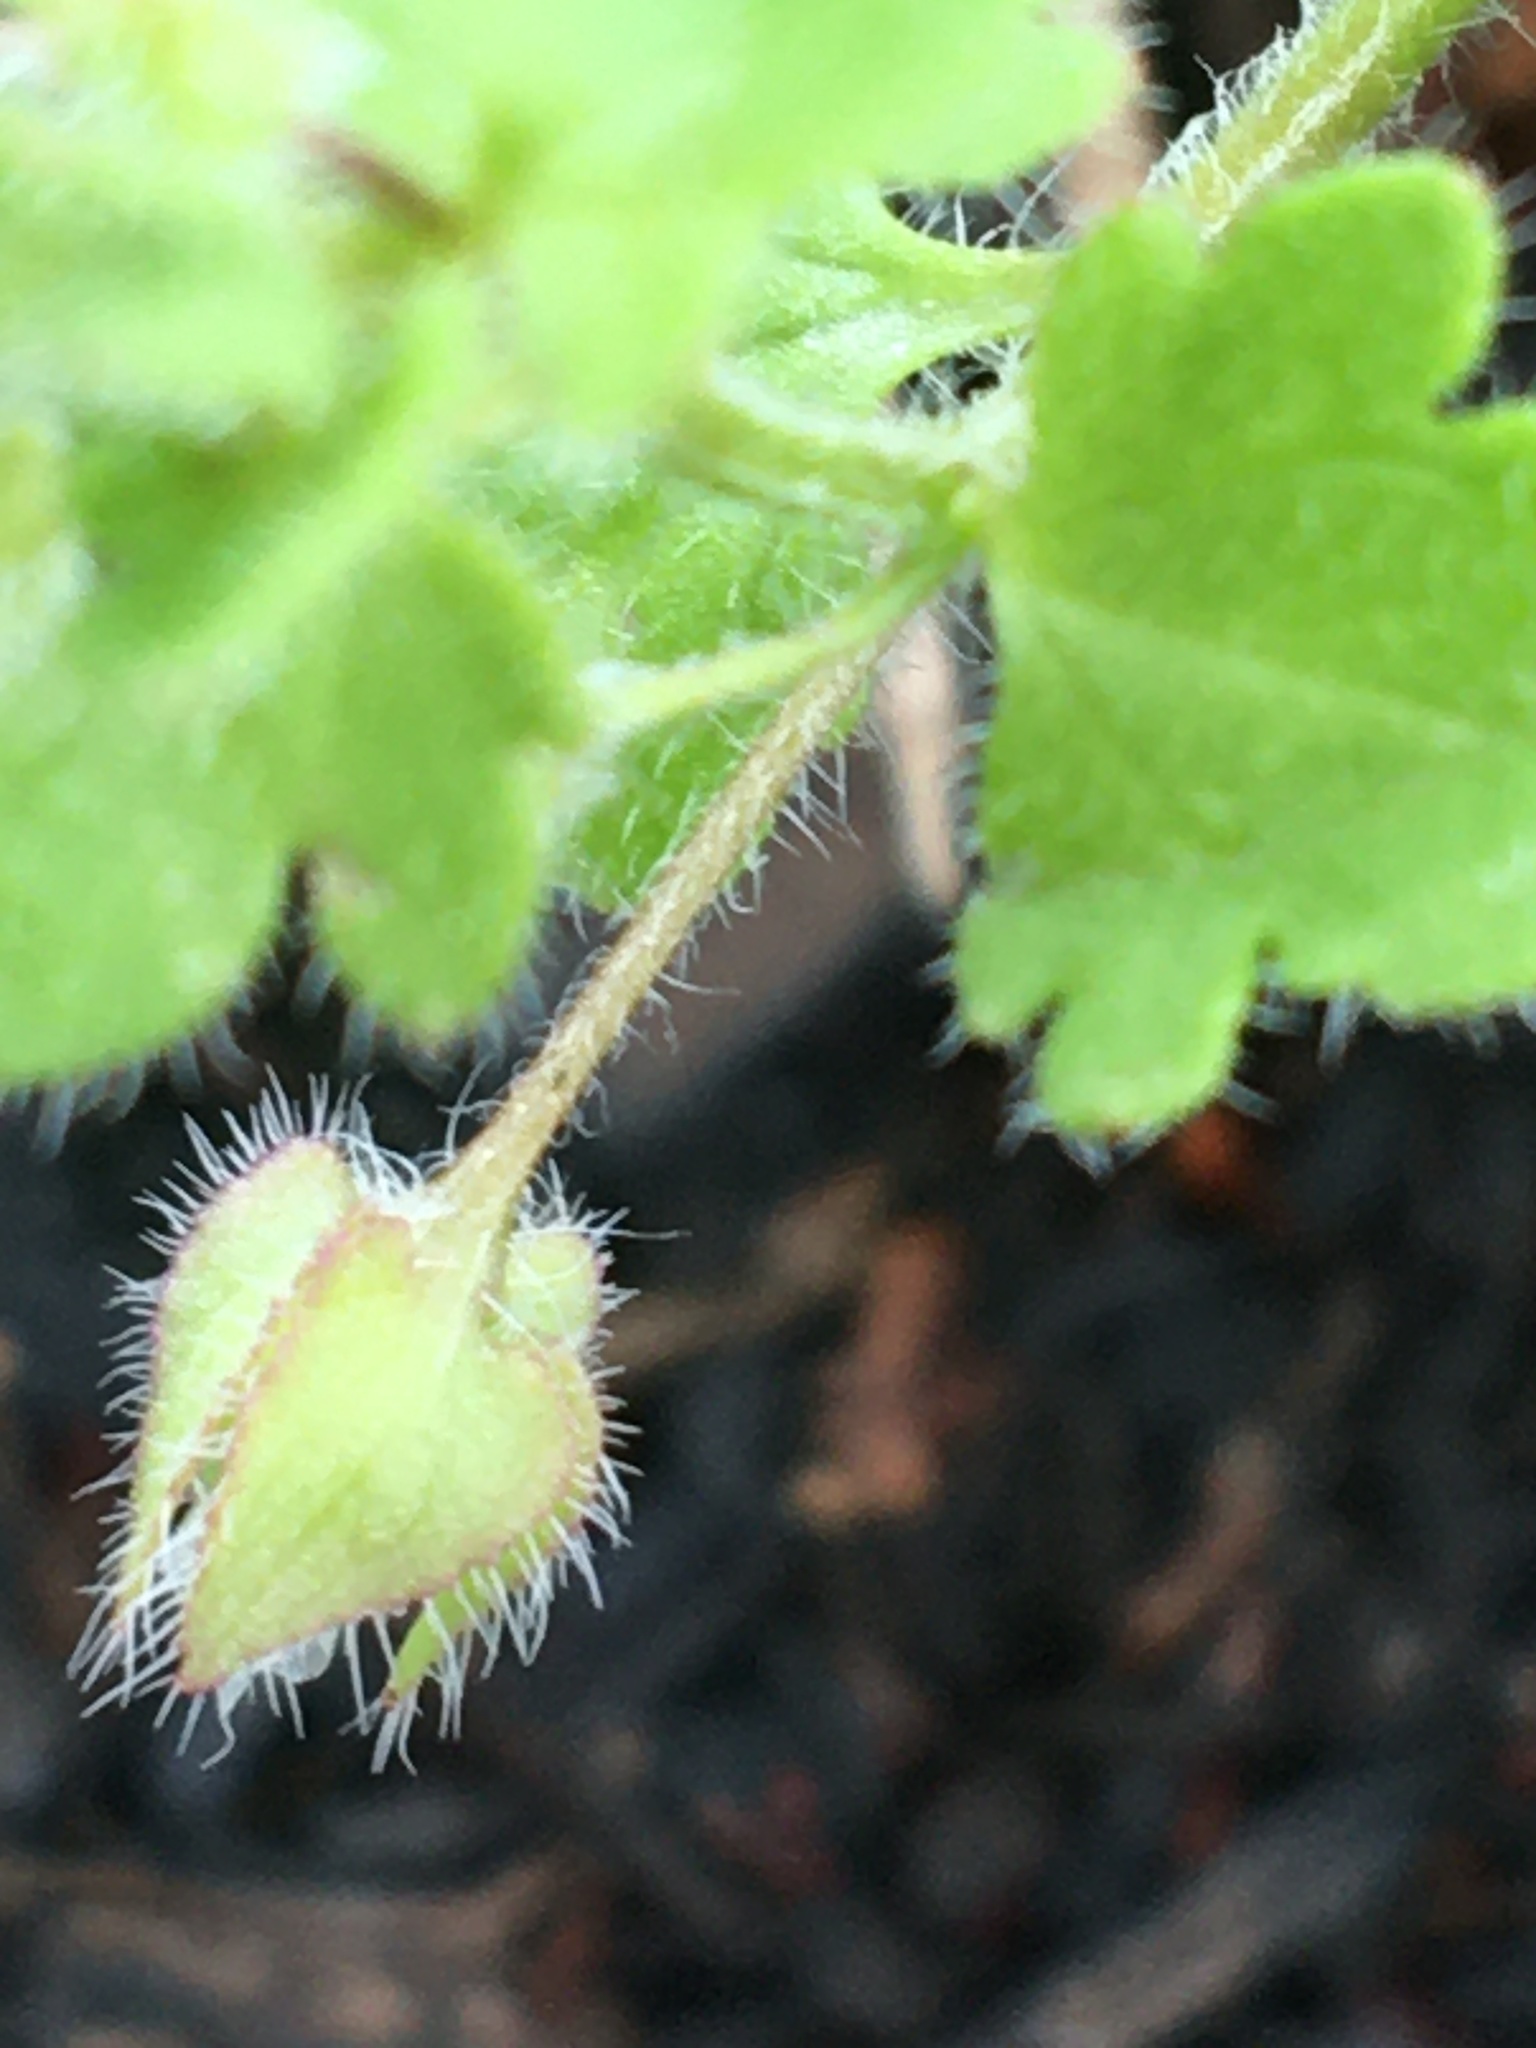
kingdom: Plantae
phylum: Tracheophyta
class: Magnoliopsida
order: Lamiales
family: Plantaginaceae
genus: Veronica
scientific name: Veronica sublobata
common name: False ivy-leaved speedwell
